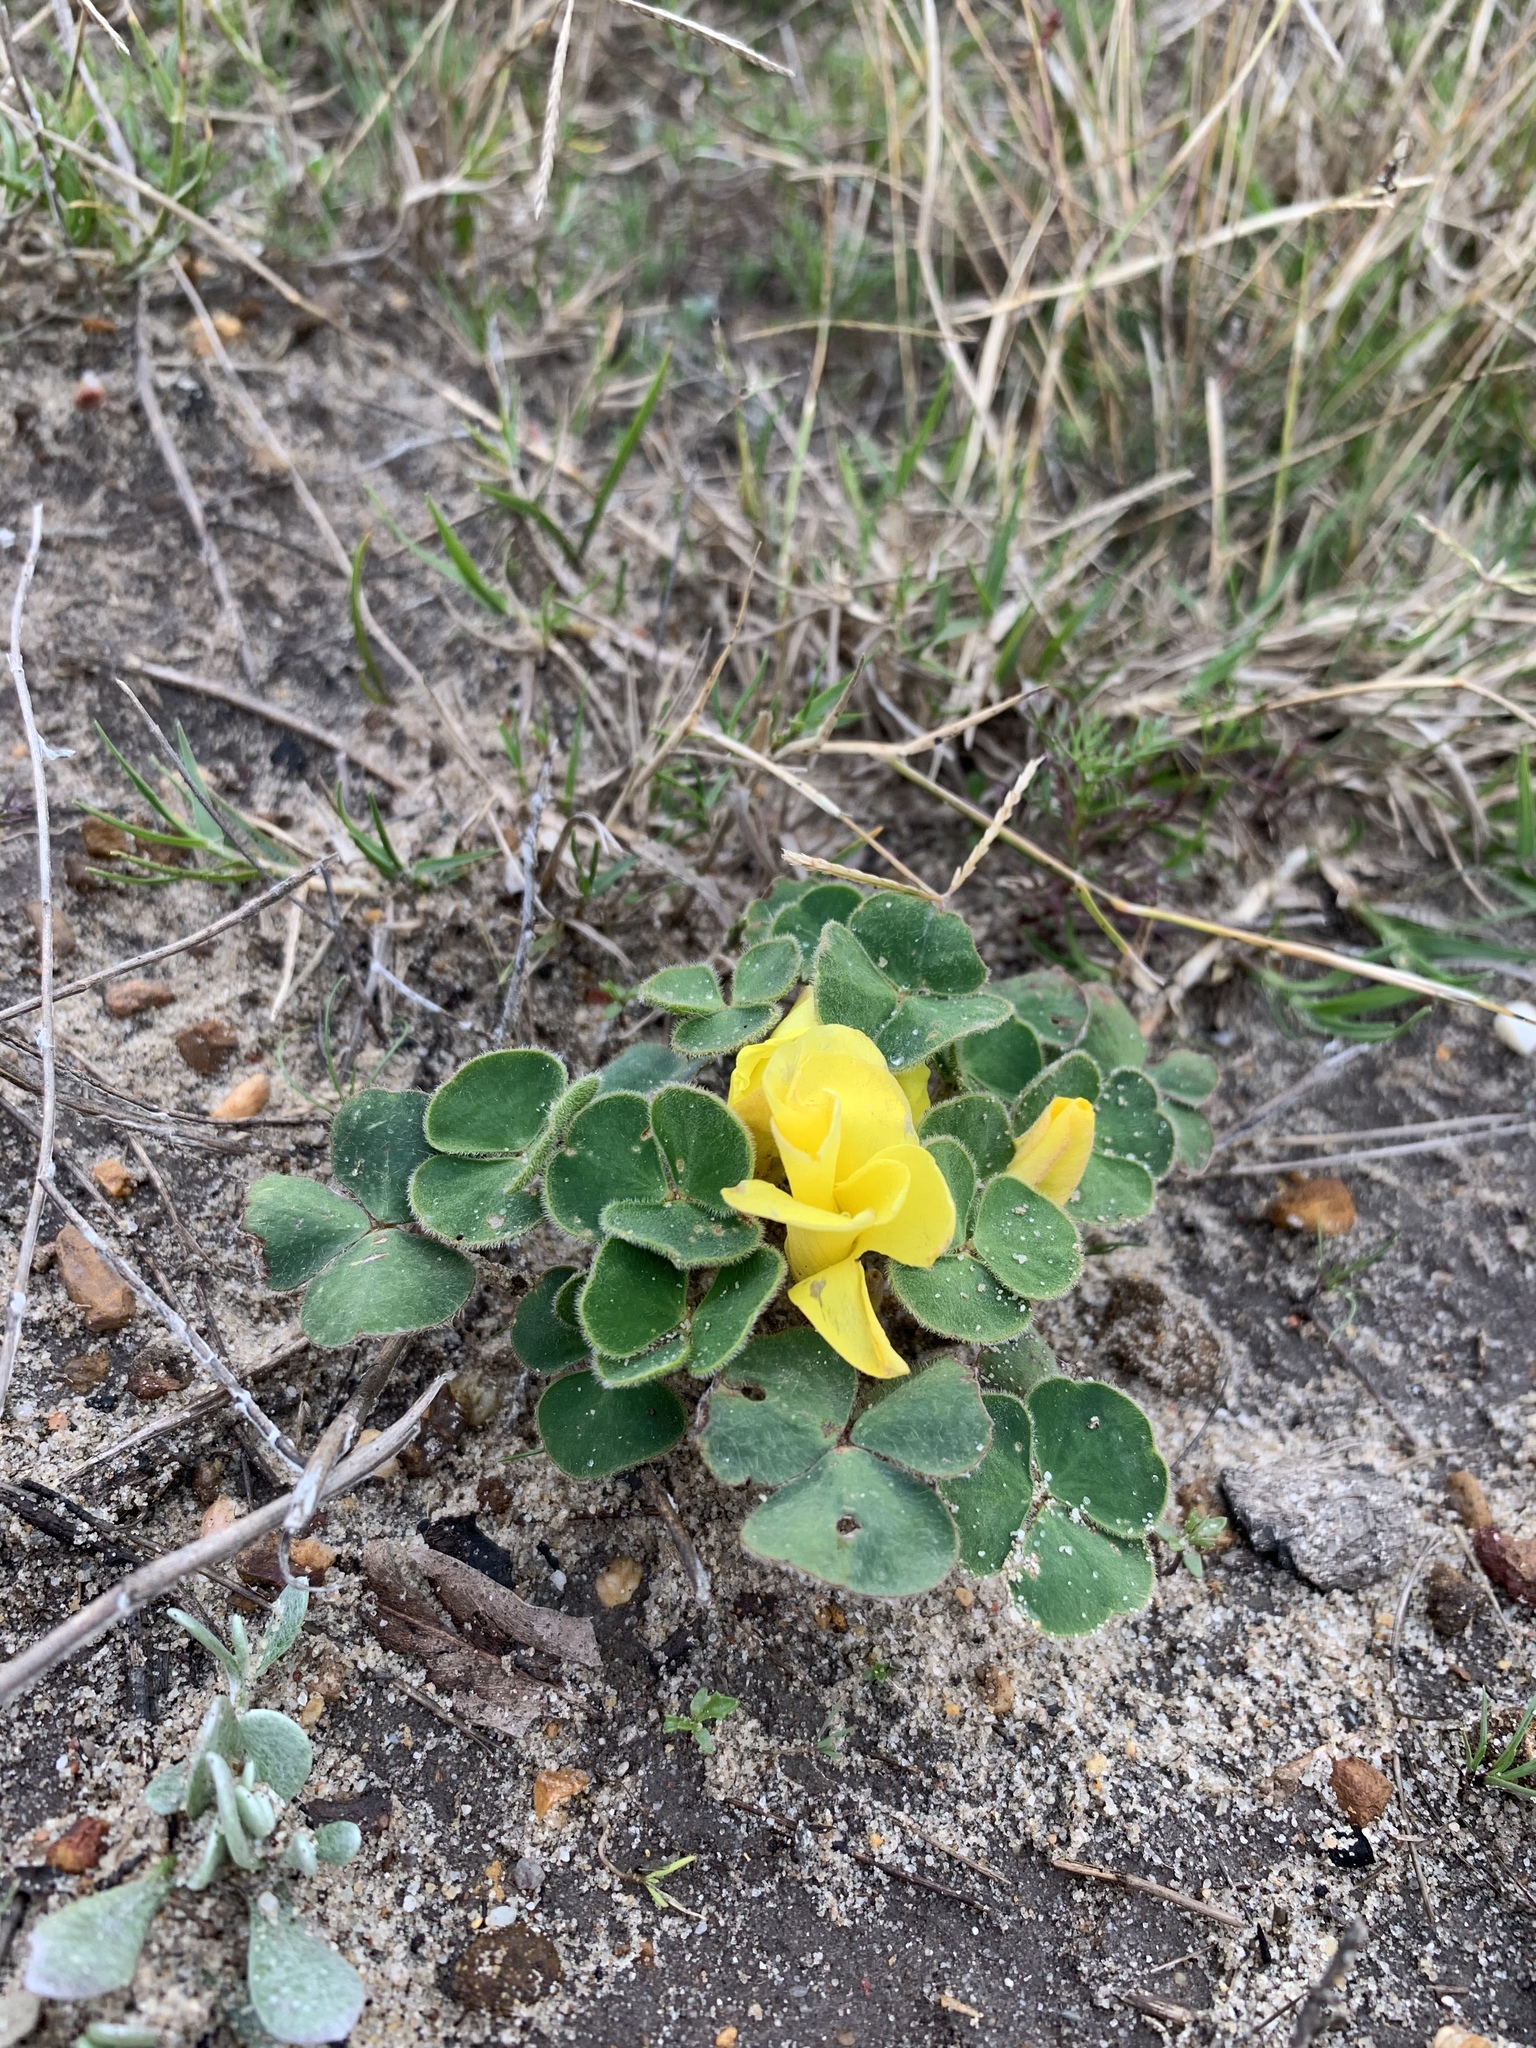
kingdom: Plantae
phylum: Tracheophyta
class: Magnoliopsida
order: Oxalidales
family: Oxalidaceae
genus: Oxalis
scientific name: Oxalis luteola
